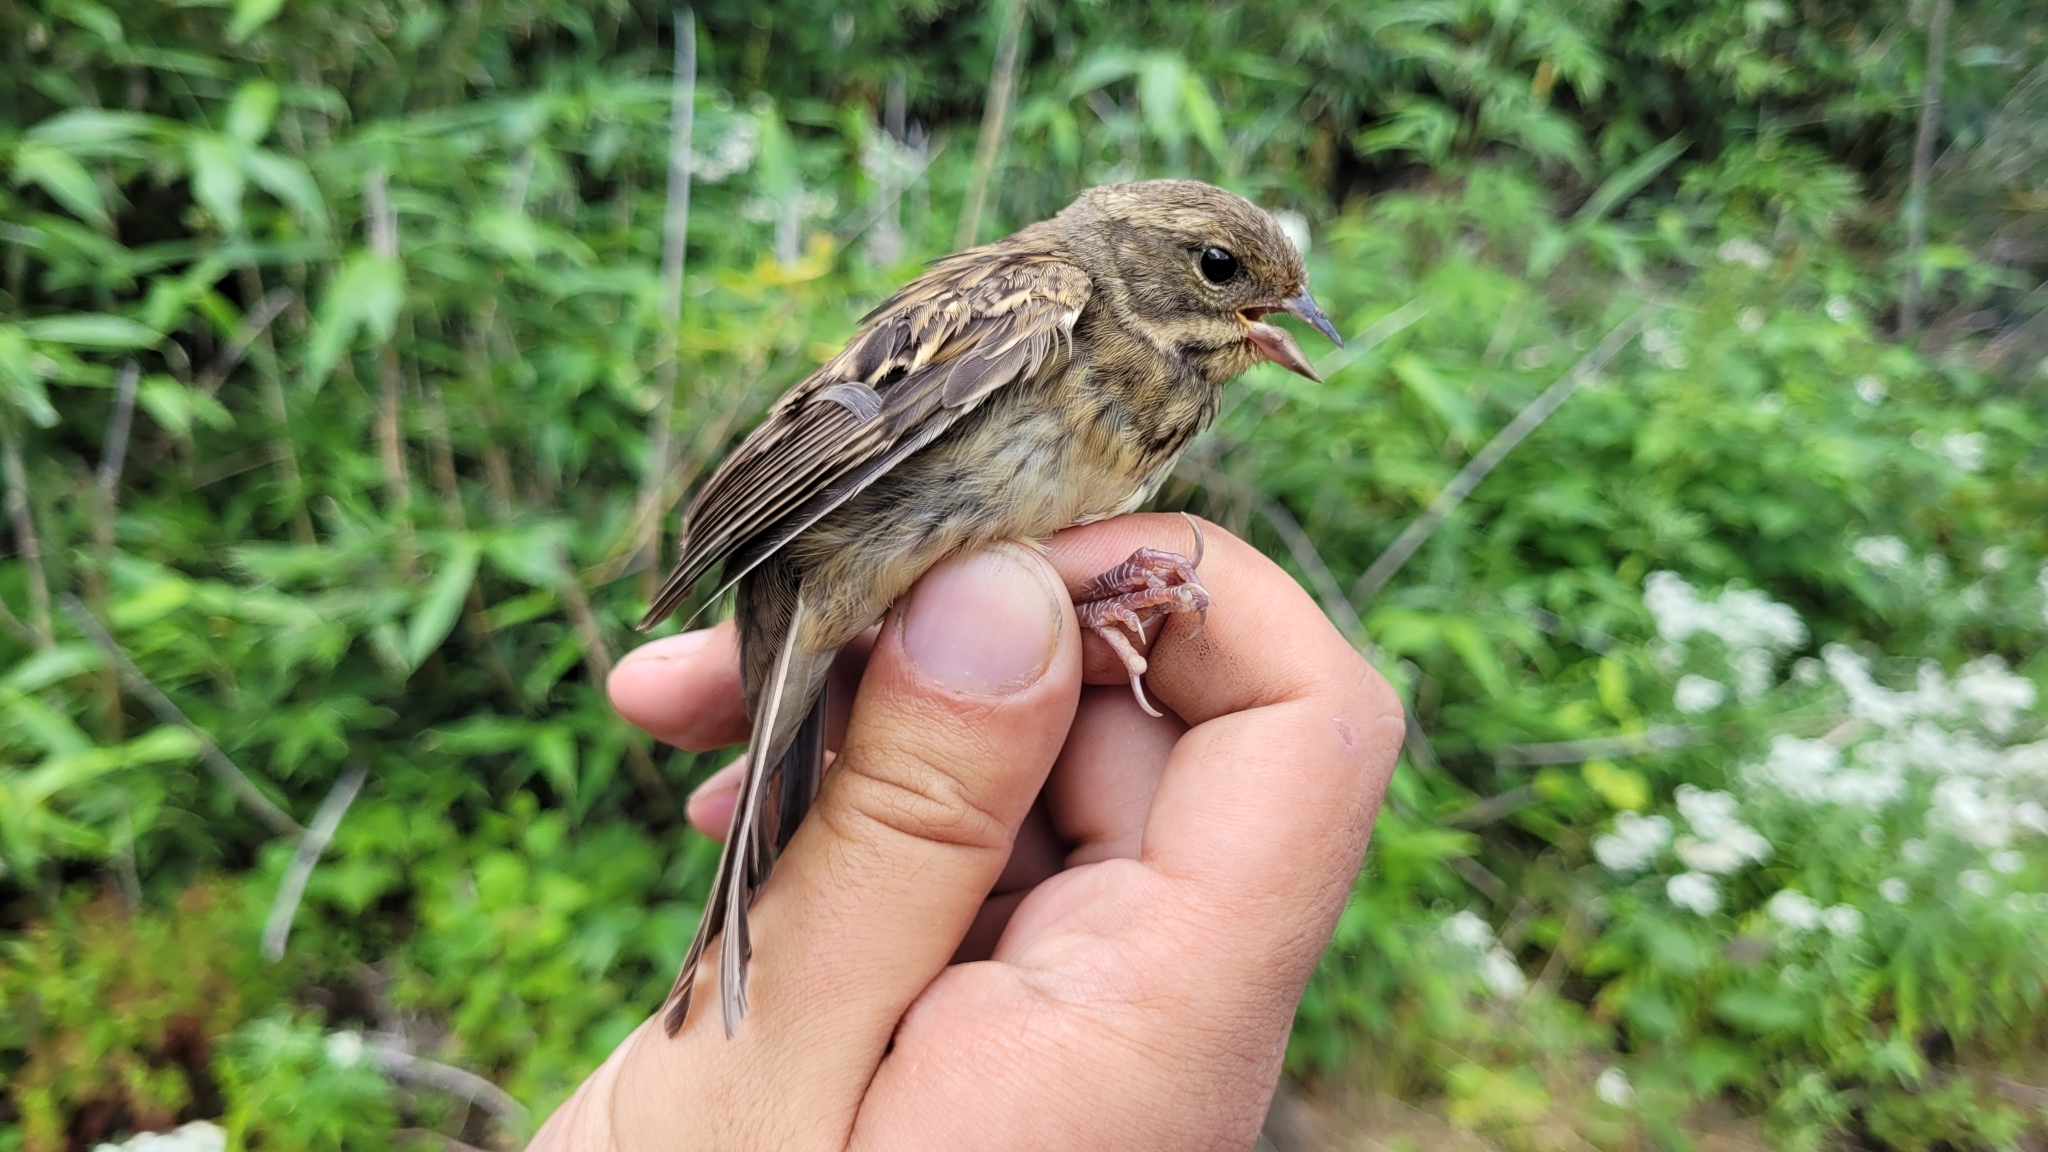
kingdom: Animalia
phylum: Chordata
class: Aves
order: Passeriformes
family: Emberizidae
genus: Emberiza
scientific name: Emberiza personata
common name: Masked bunting
